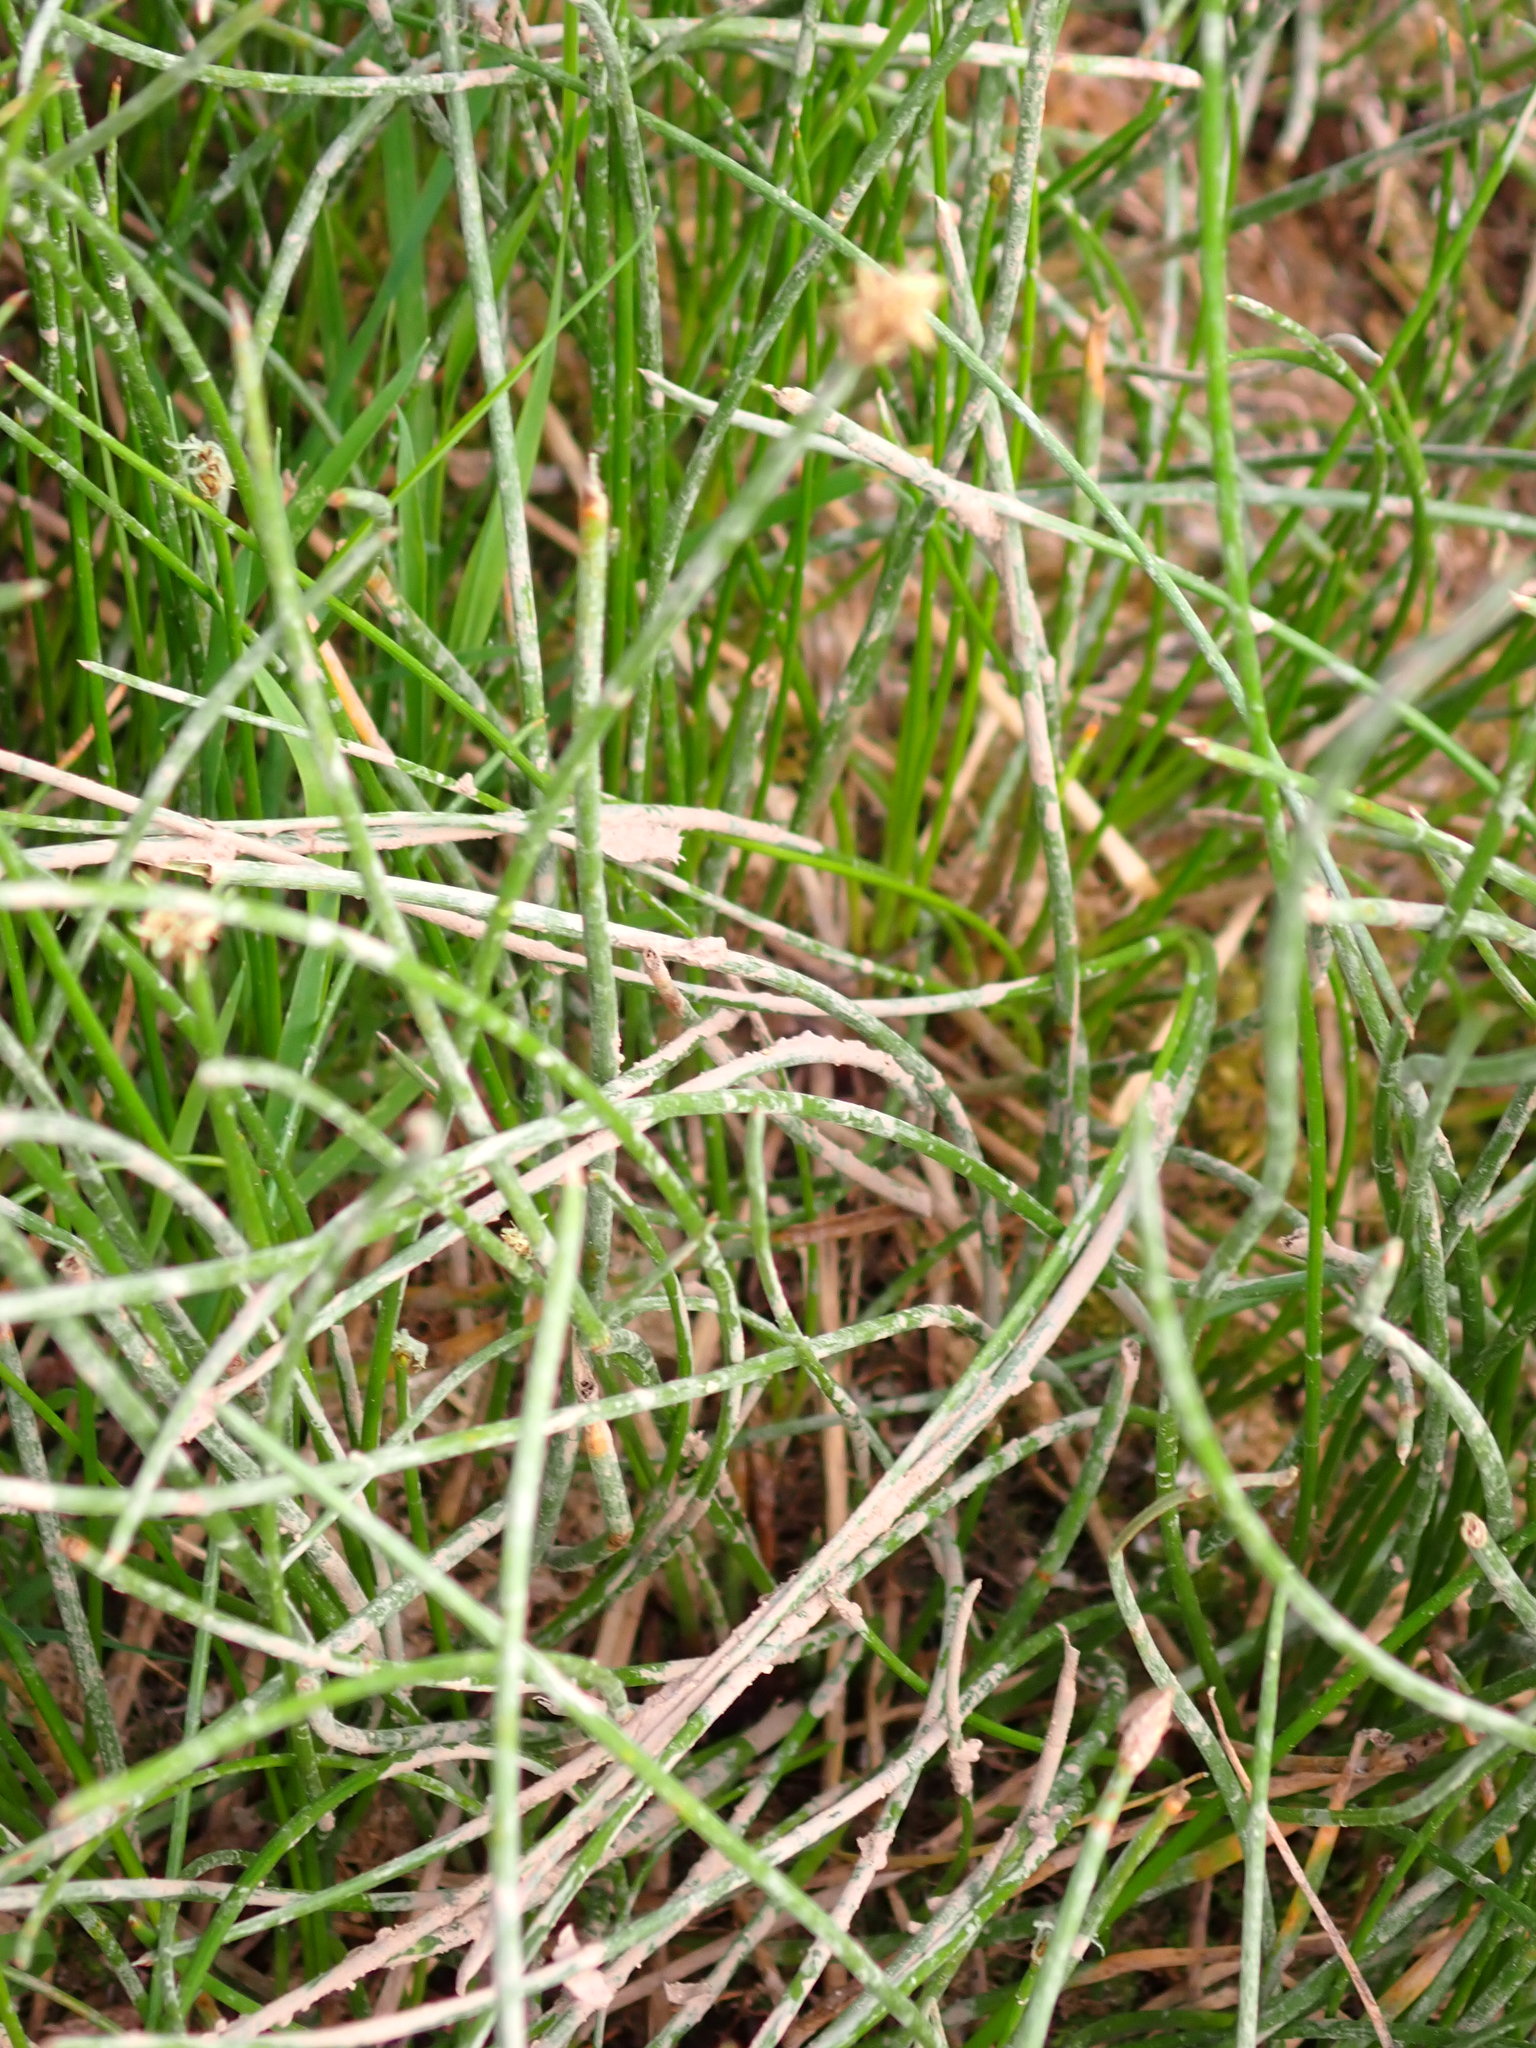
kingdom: Plantae
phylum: Tracheophyta
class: Liliopsida
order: Poales
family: Cyperaceae
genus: Eleocharis
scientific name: Eleocharis palustris
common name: Common spike-rush
